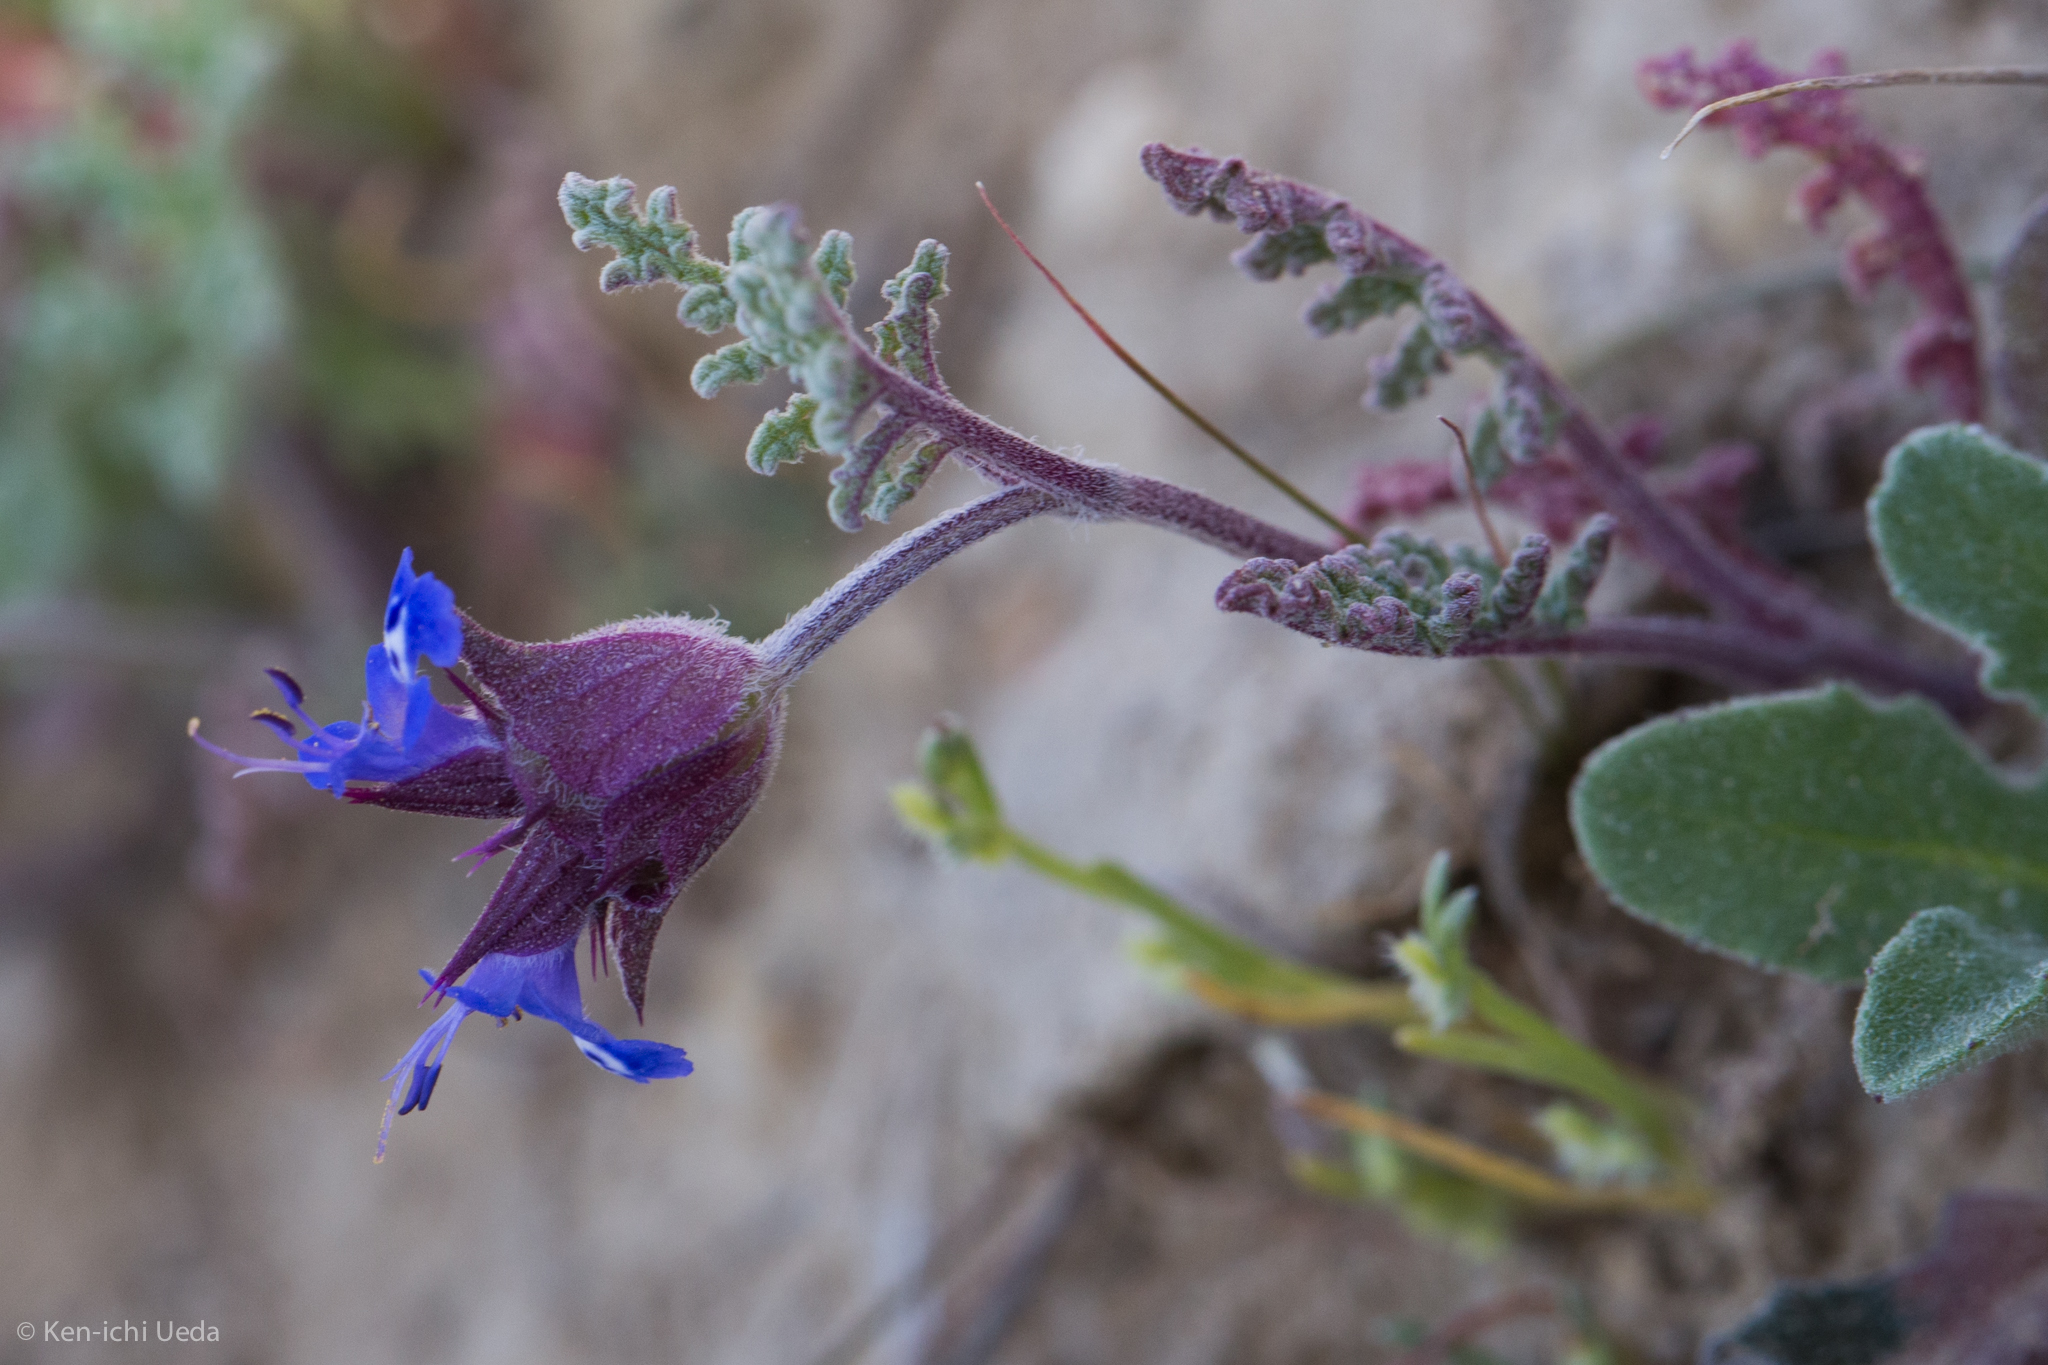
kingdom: Plantae
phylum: Tracheophyta
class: Magnoliopsida
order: Lamiales
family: Lamiaceae
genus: Salvia
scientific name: Salvia columbariae
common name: Chia
